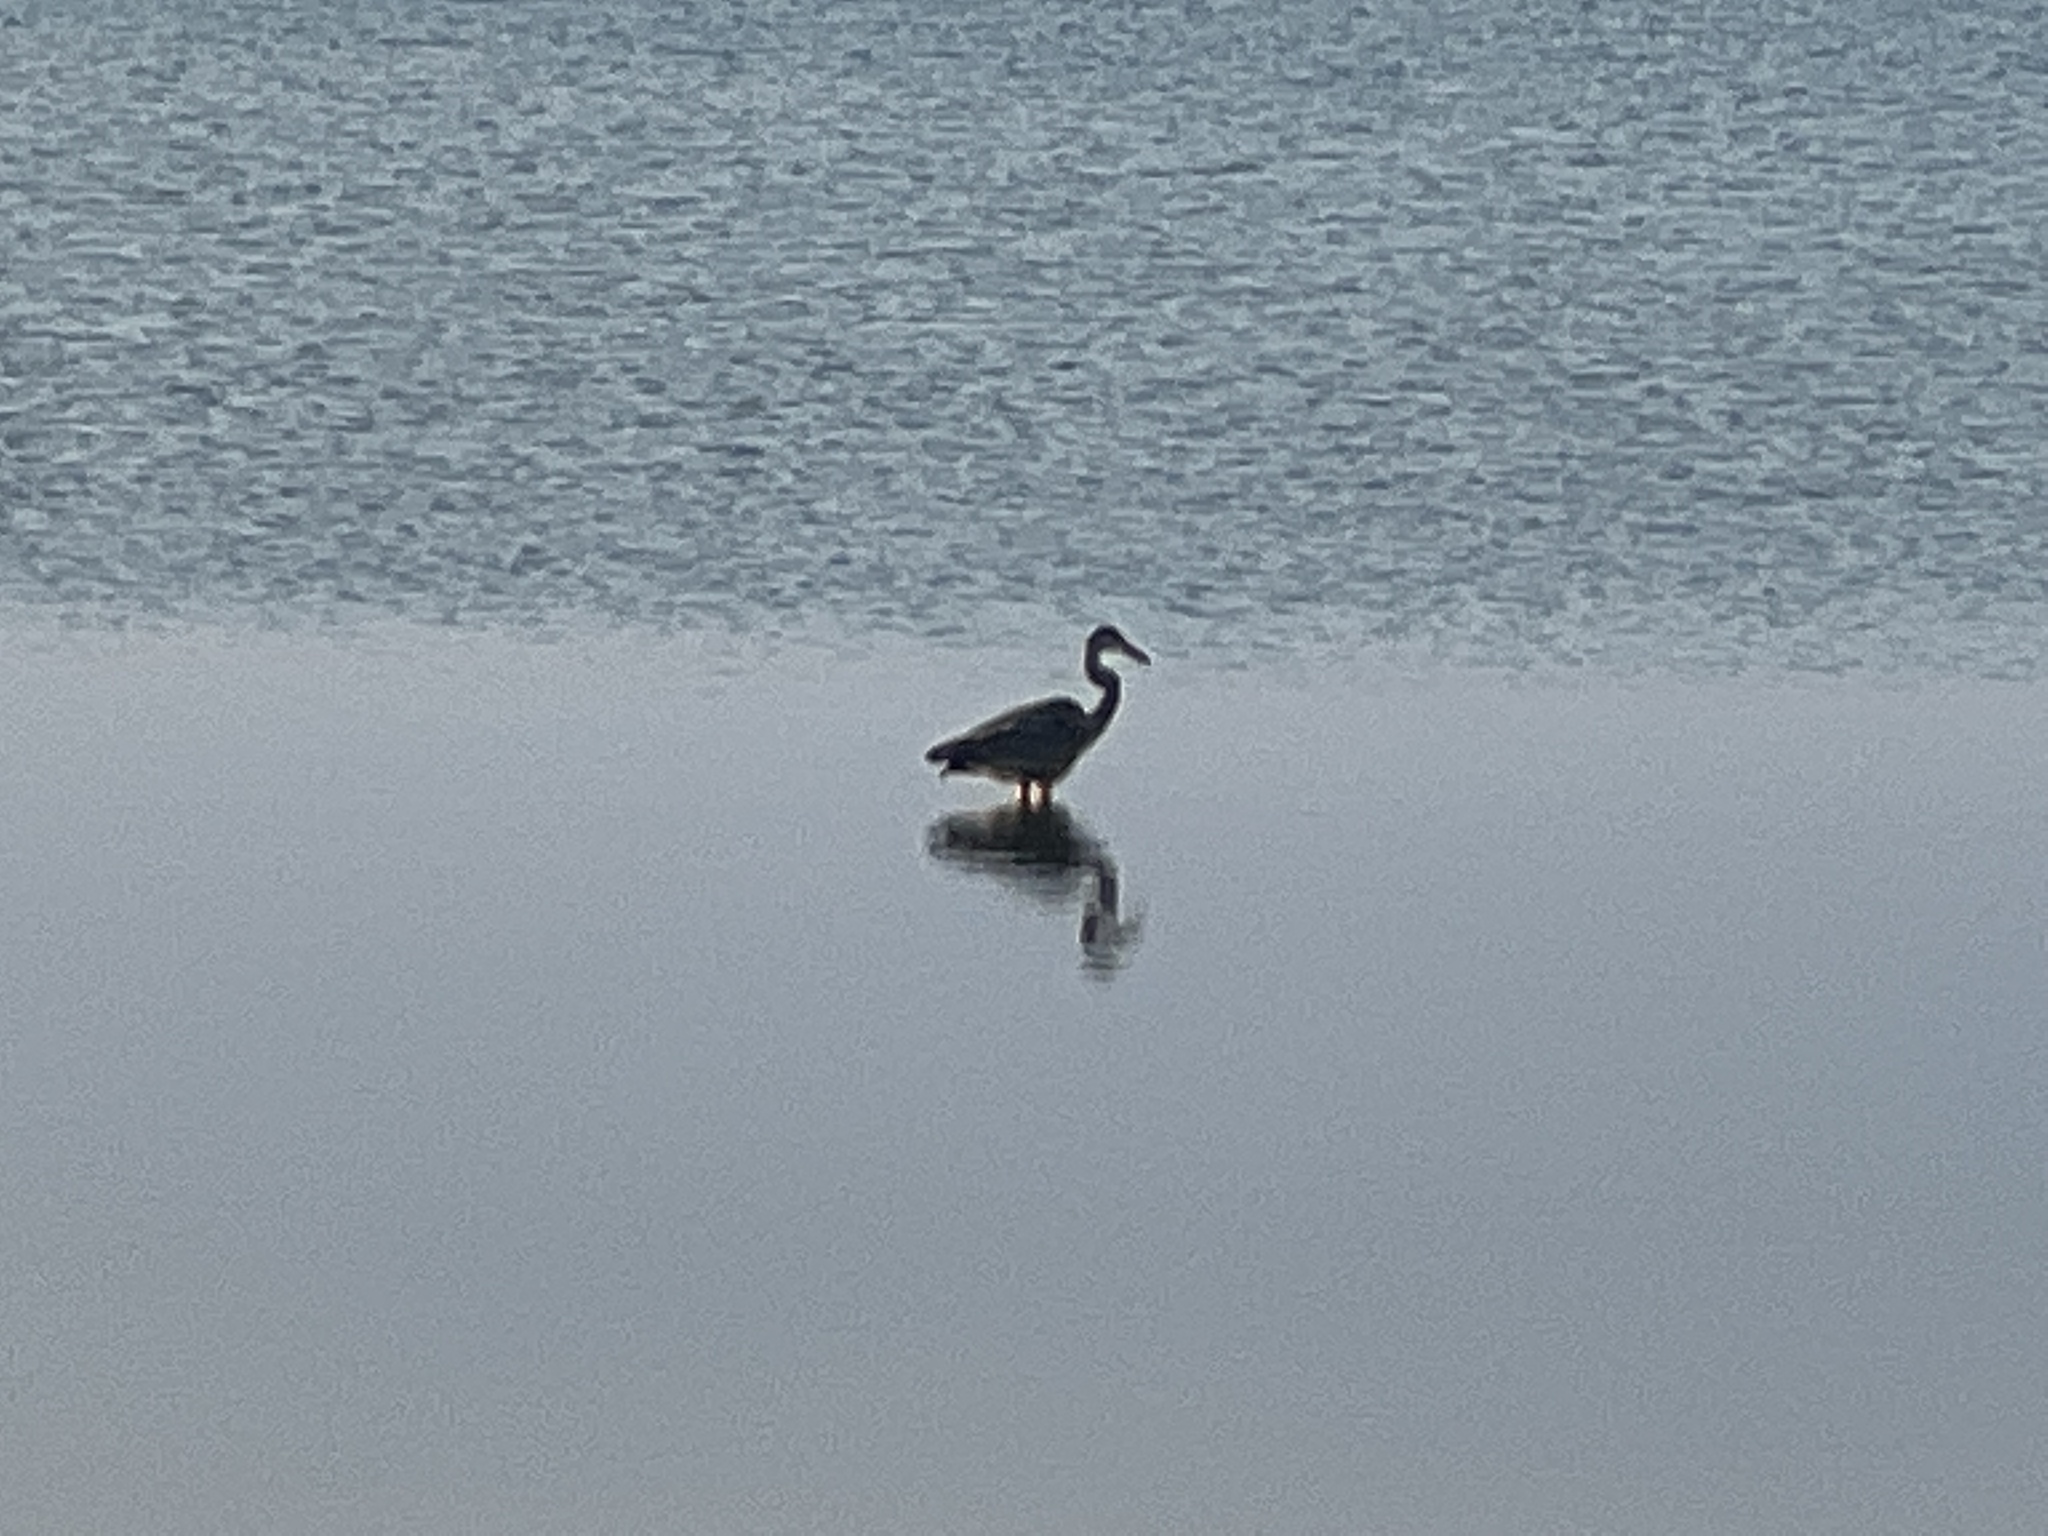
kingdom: Animalia
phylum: Chordata
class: Aves
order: Pelecaniformes
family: Ardeidae
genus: Ardea
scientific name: Ardea herodias
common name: Great blue heron
